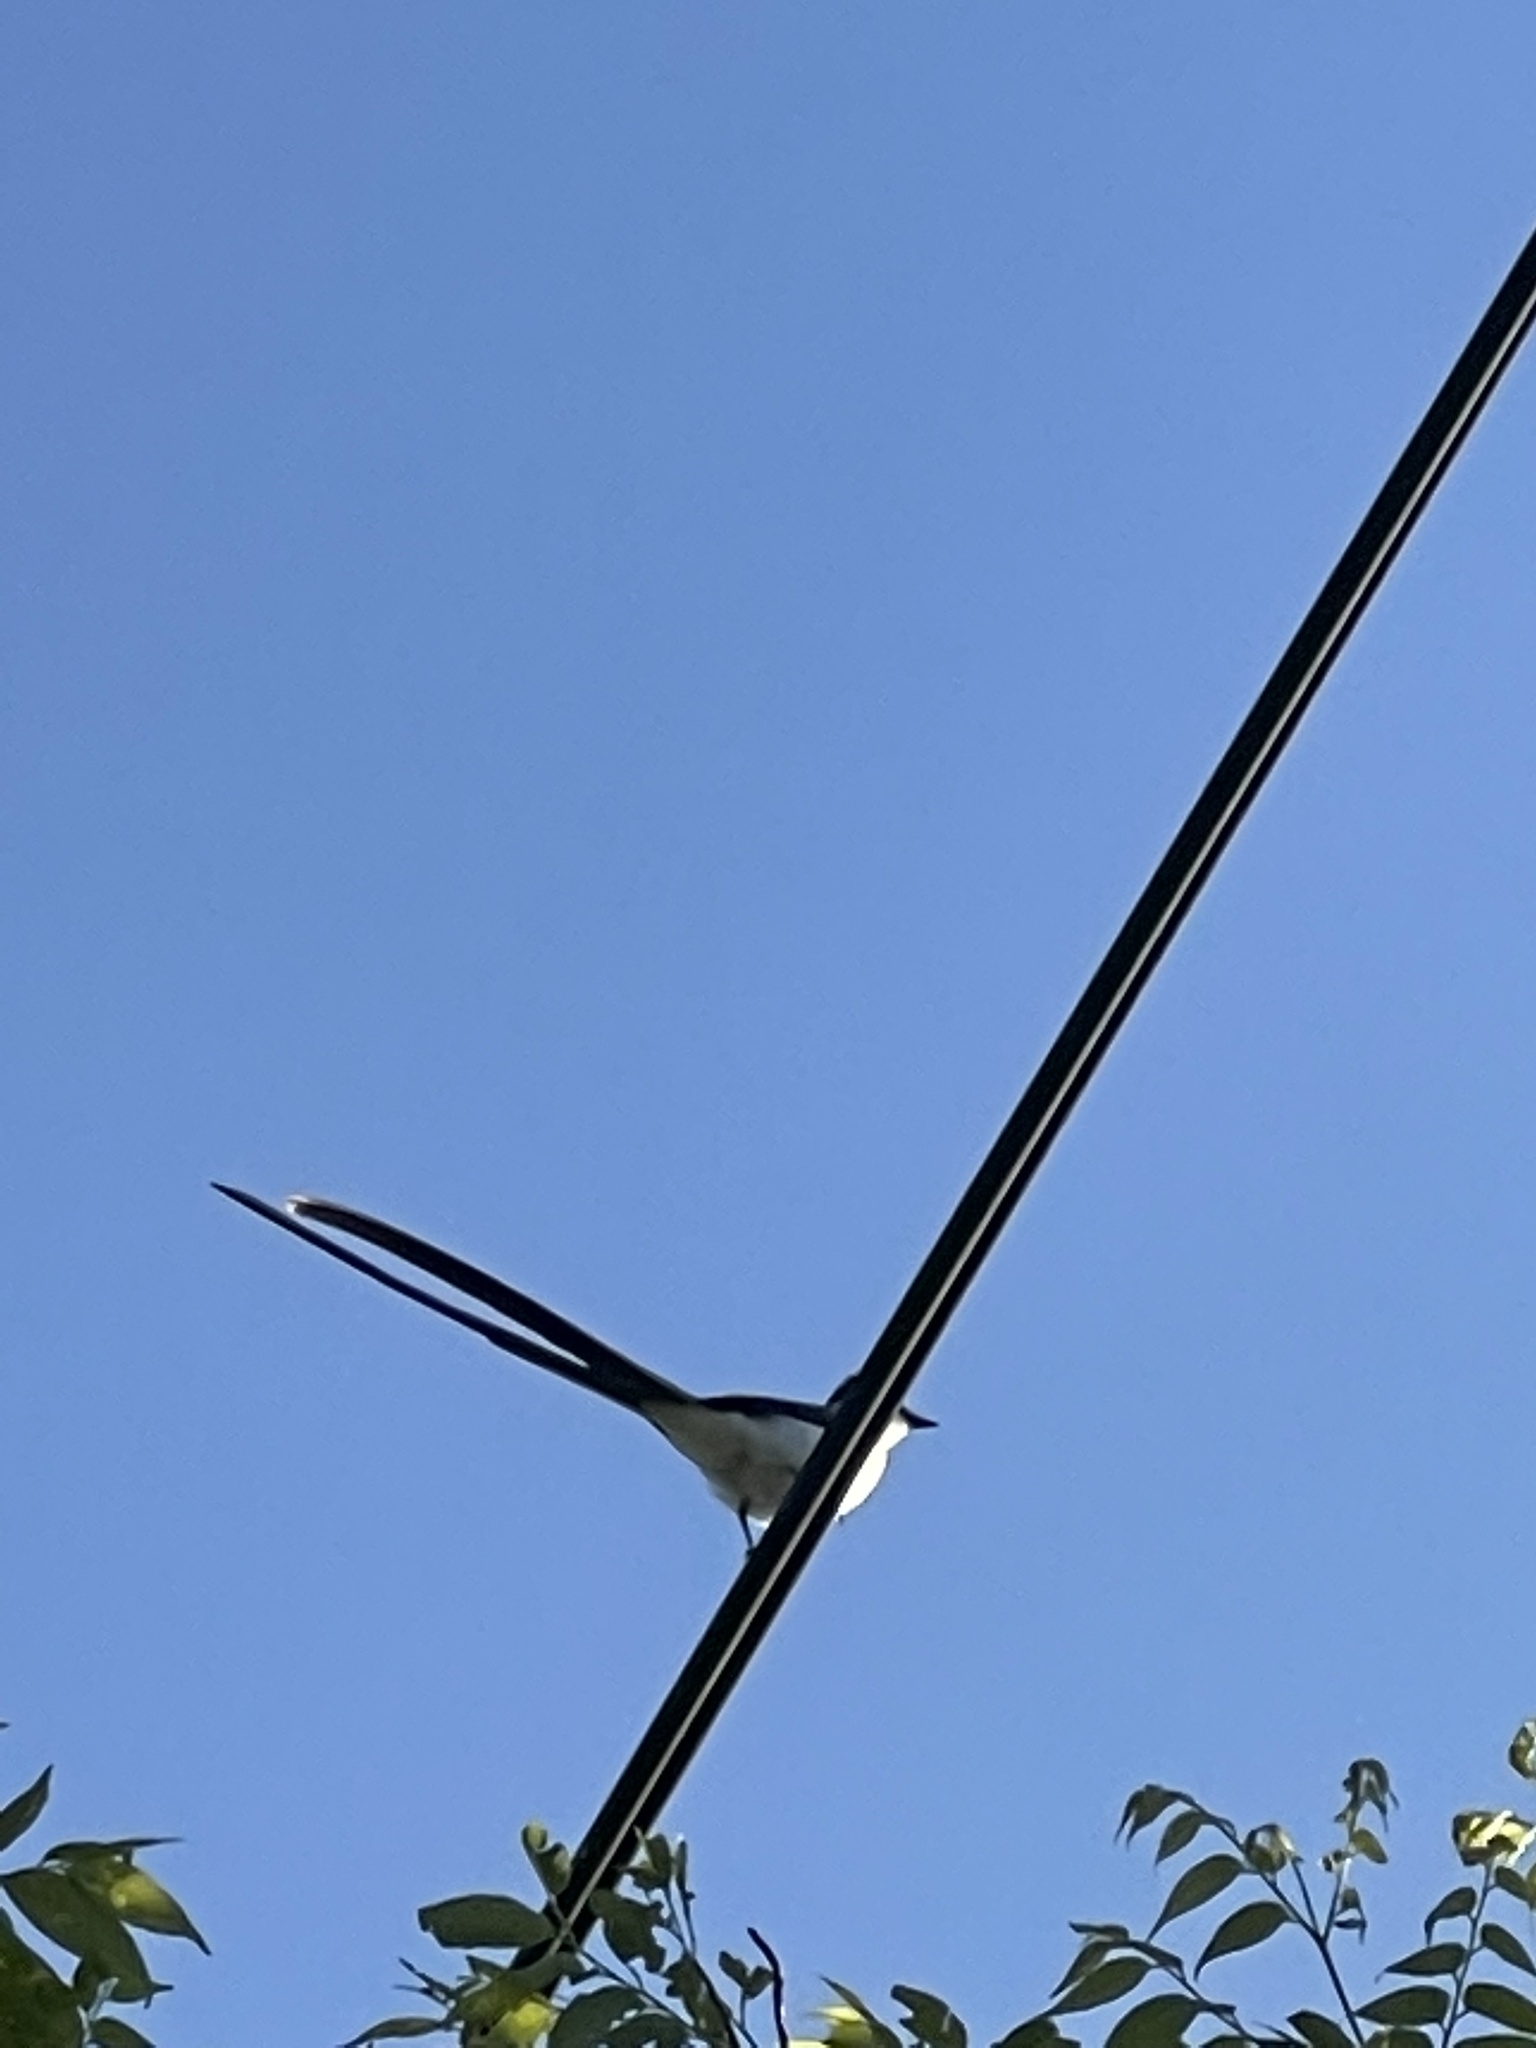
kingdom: Animalia
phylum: Chordata
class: Aves
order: Passeriformes
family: Tyrannidae
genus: Tyrannus
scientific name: Tyrannus savana
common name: Fork-tailed flycatcher
